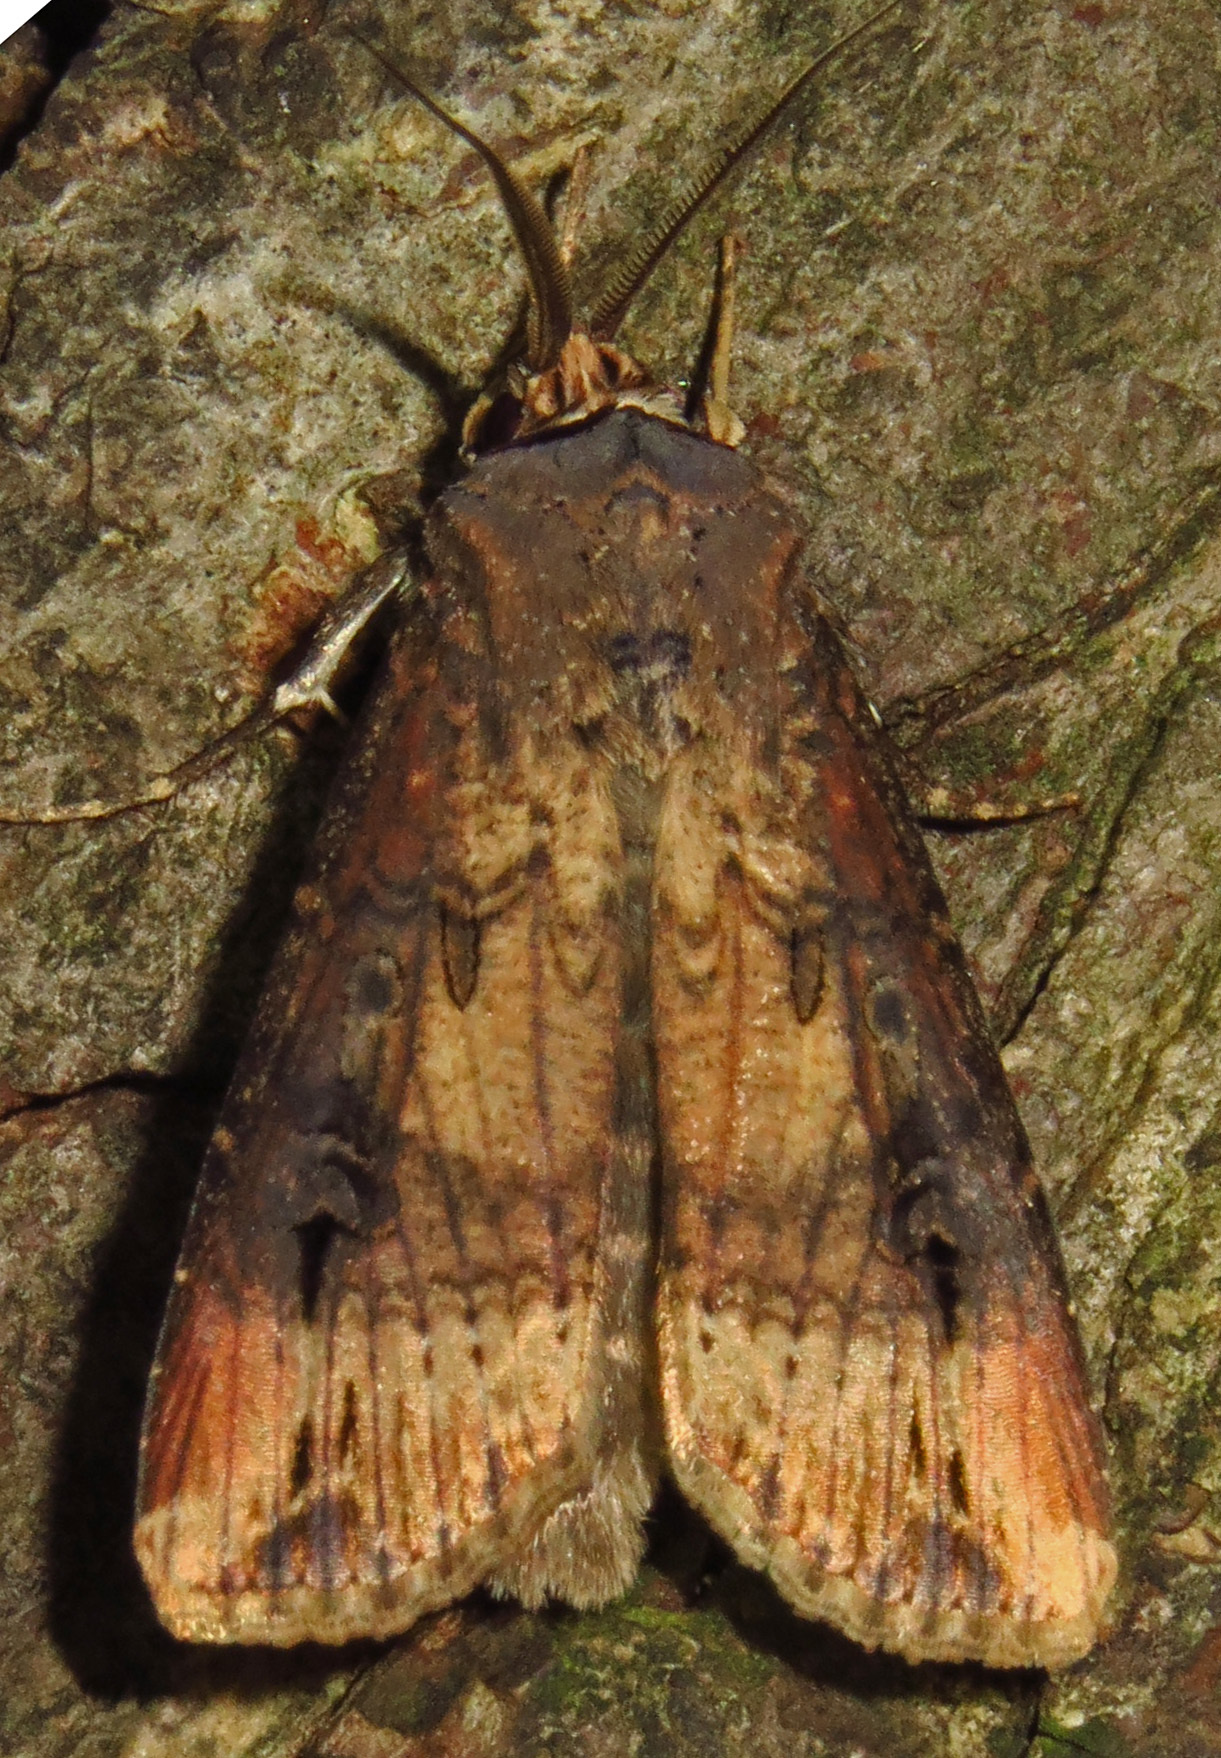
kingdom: Animalia
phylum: Arthropoda
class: Insecta
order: Lepidoptera
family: Noctuidae
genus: Agrotis
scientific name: Agrotis ipsilon
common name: Dark sword-grass
